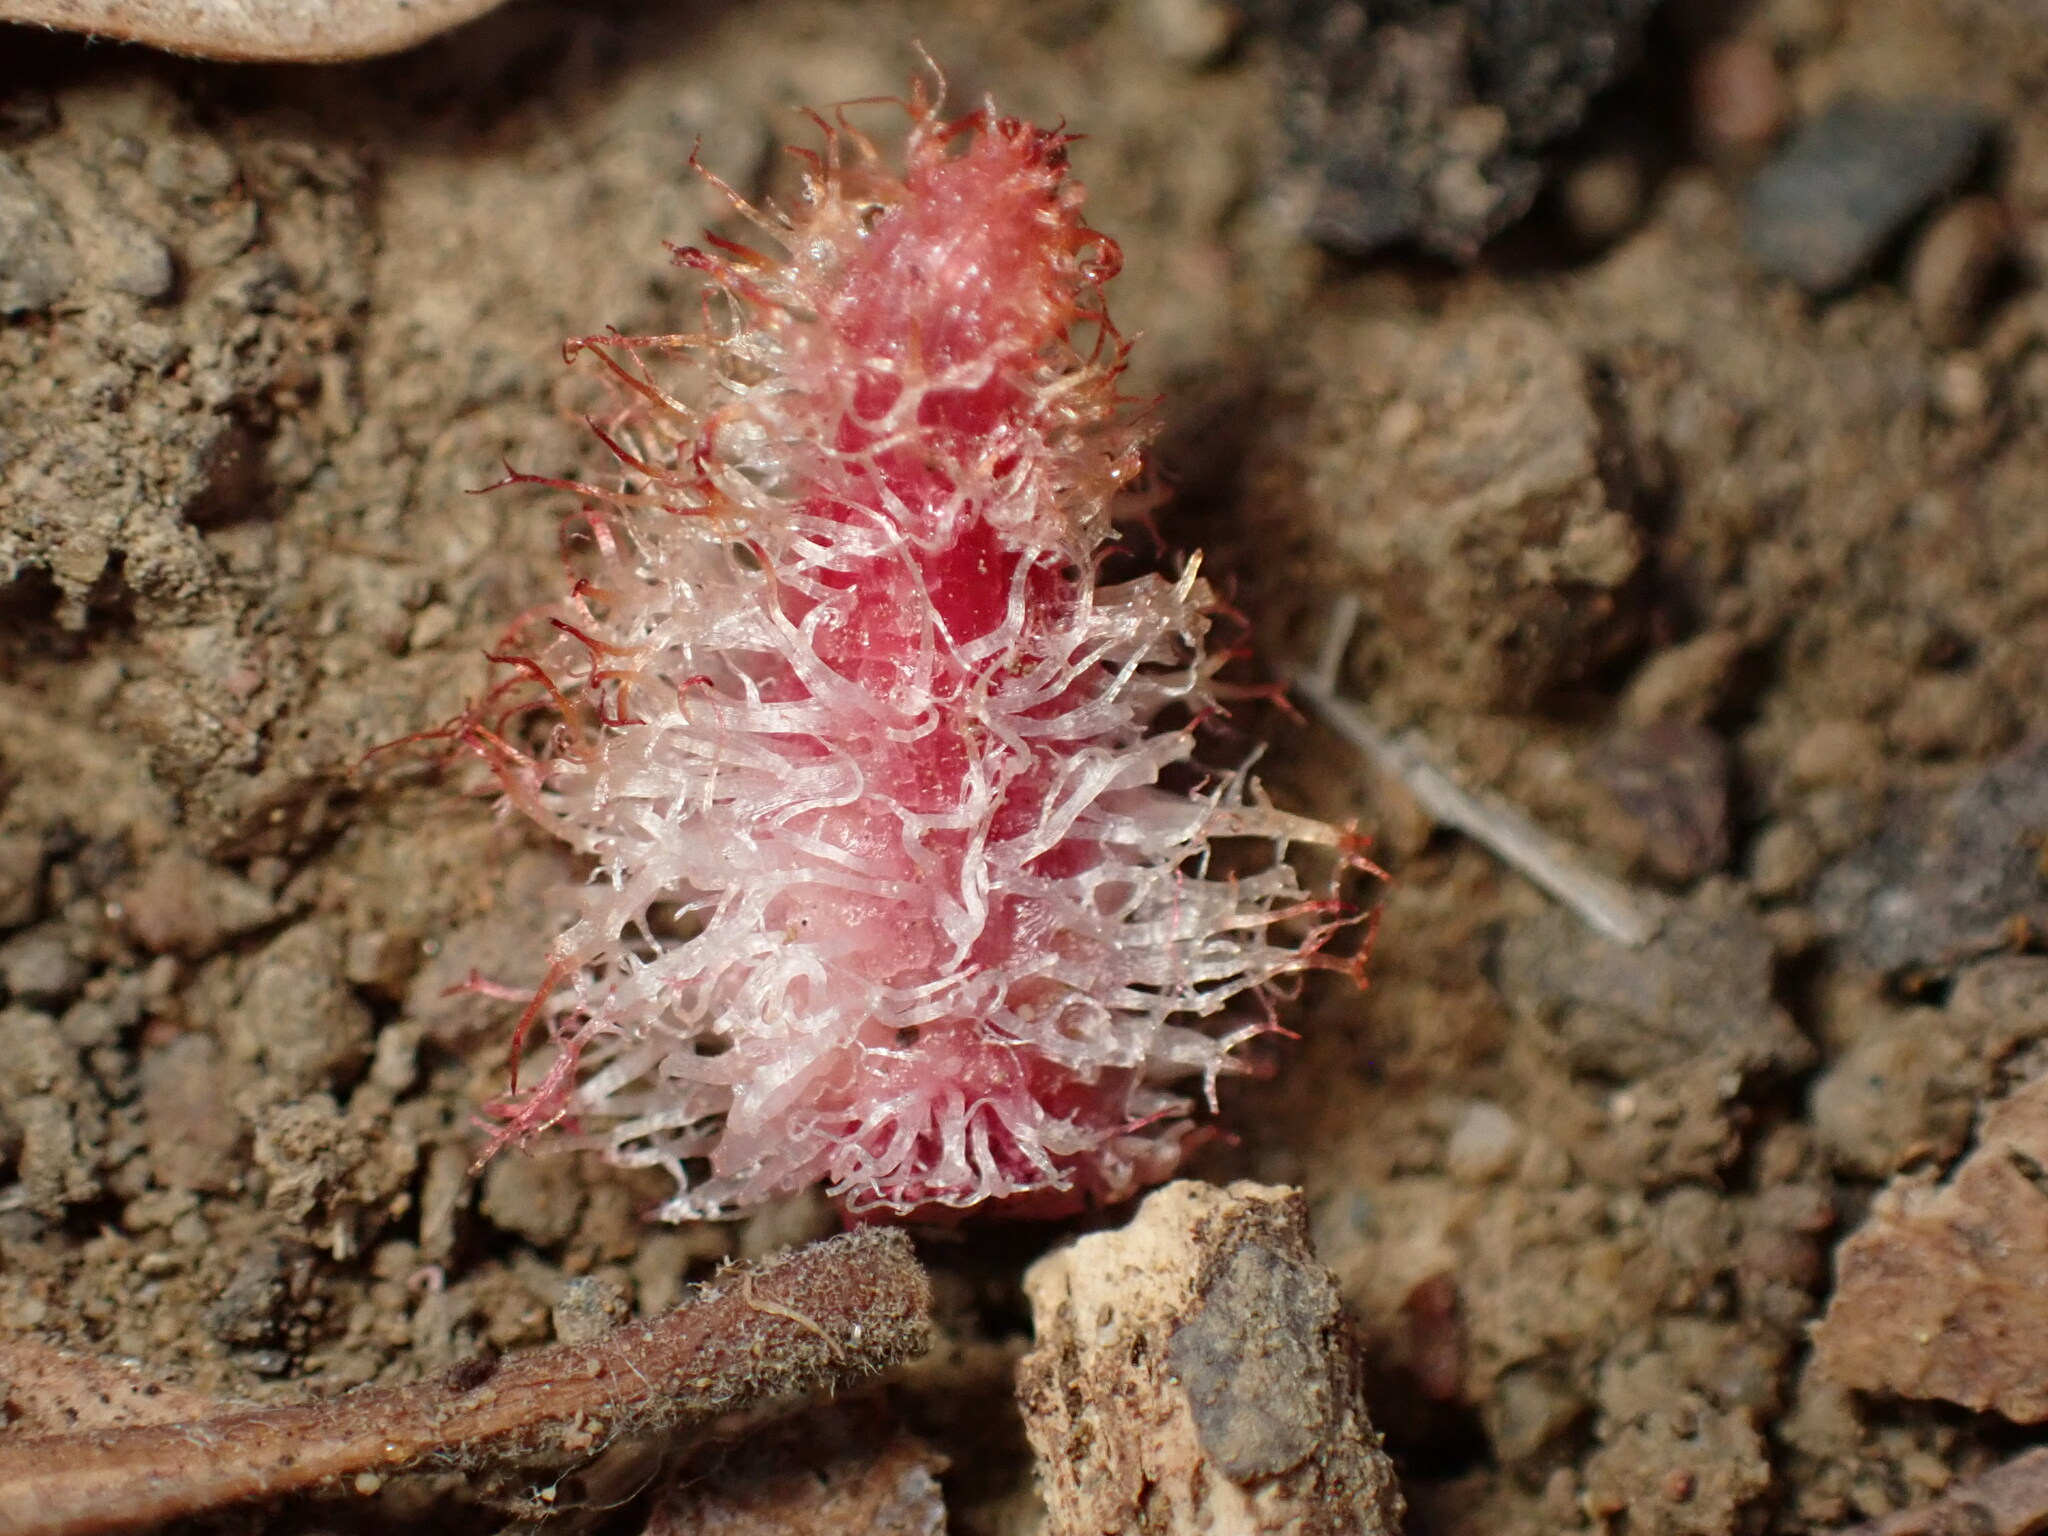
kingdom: Animalia
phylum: Arthropoda
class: Insecta
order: Hymenoptera
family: Cynipidae
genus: Andricus
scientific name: Andricus
